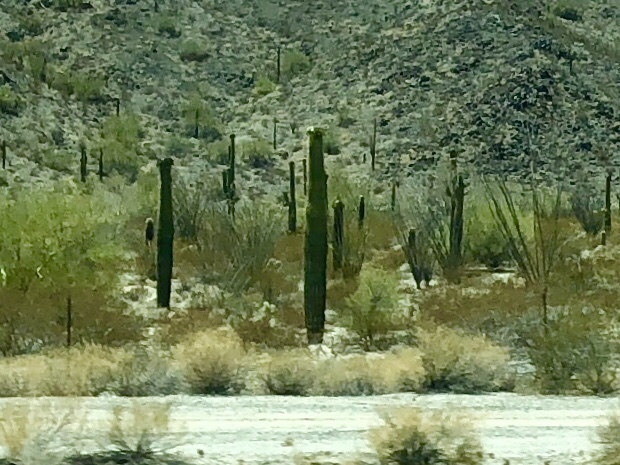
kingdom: Plantae
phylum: Tracheophyta
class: Magnoliopsida
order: Caryophyllales
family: Cactaceae
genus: Carnegiea
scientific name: Carnegiea gigantea
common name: Saguaro
